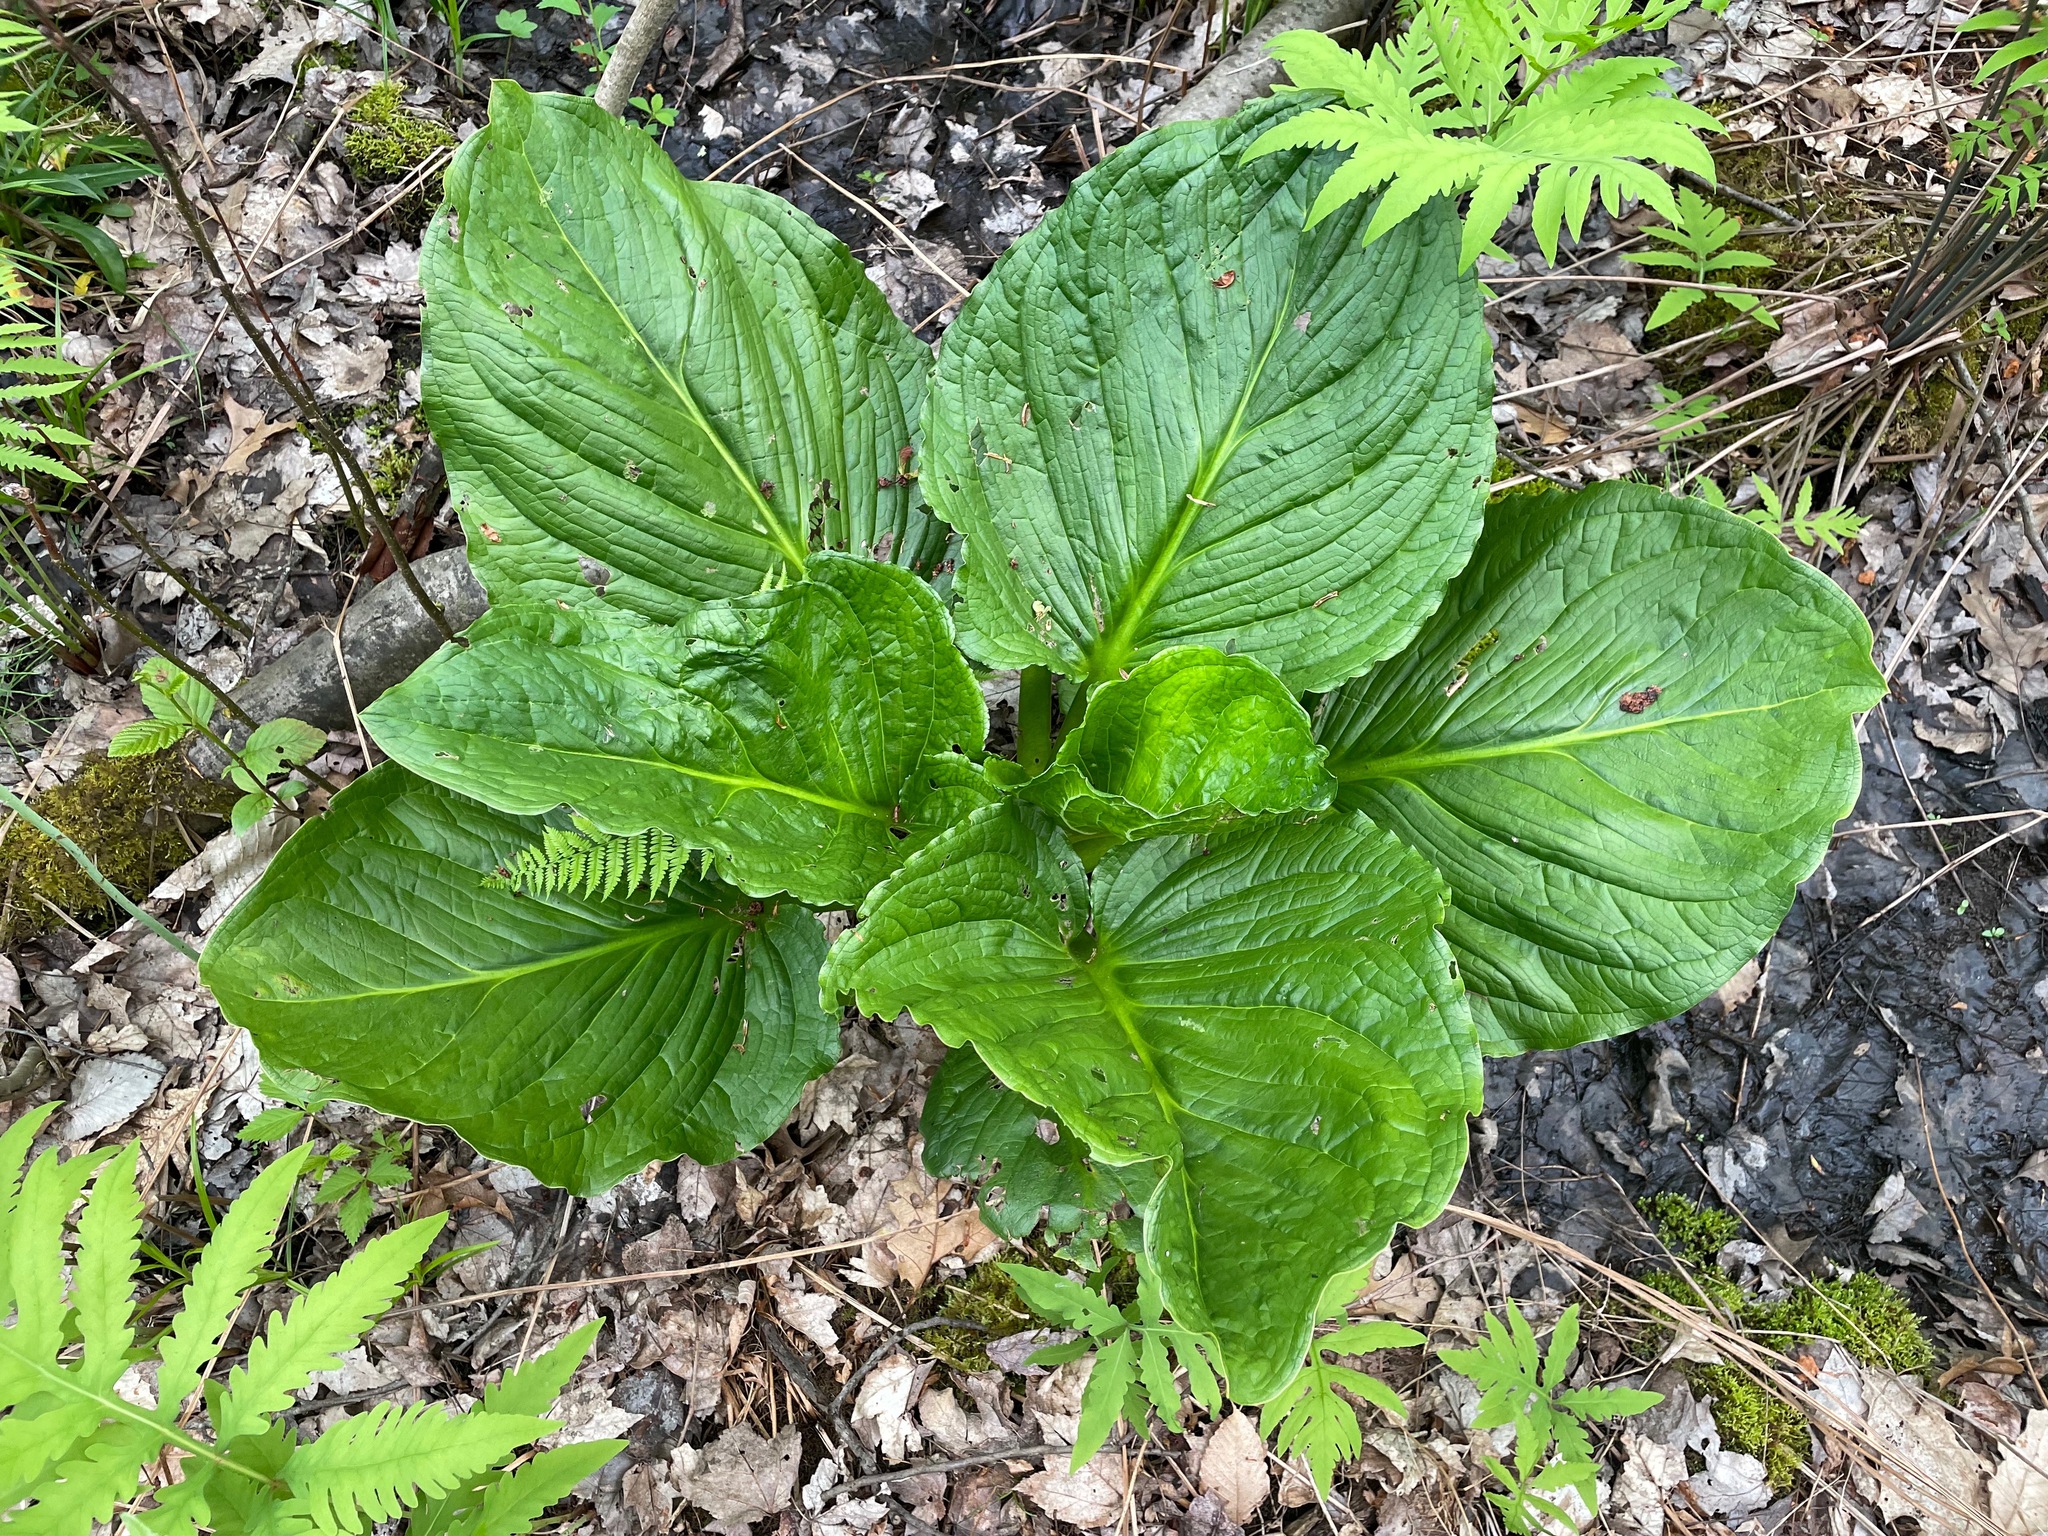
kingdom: Plantae
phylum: Tracheophyta
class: Liliopsida
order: Alismatales
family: Araceae
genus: Symplocarpus
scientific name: Symplocarpus foetidus
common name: Eastern skunk cabbage
